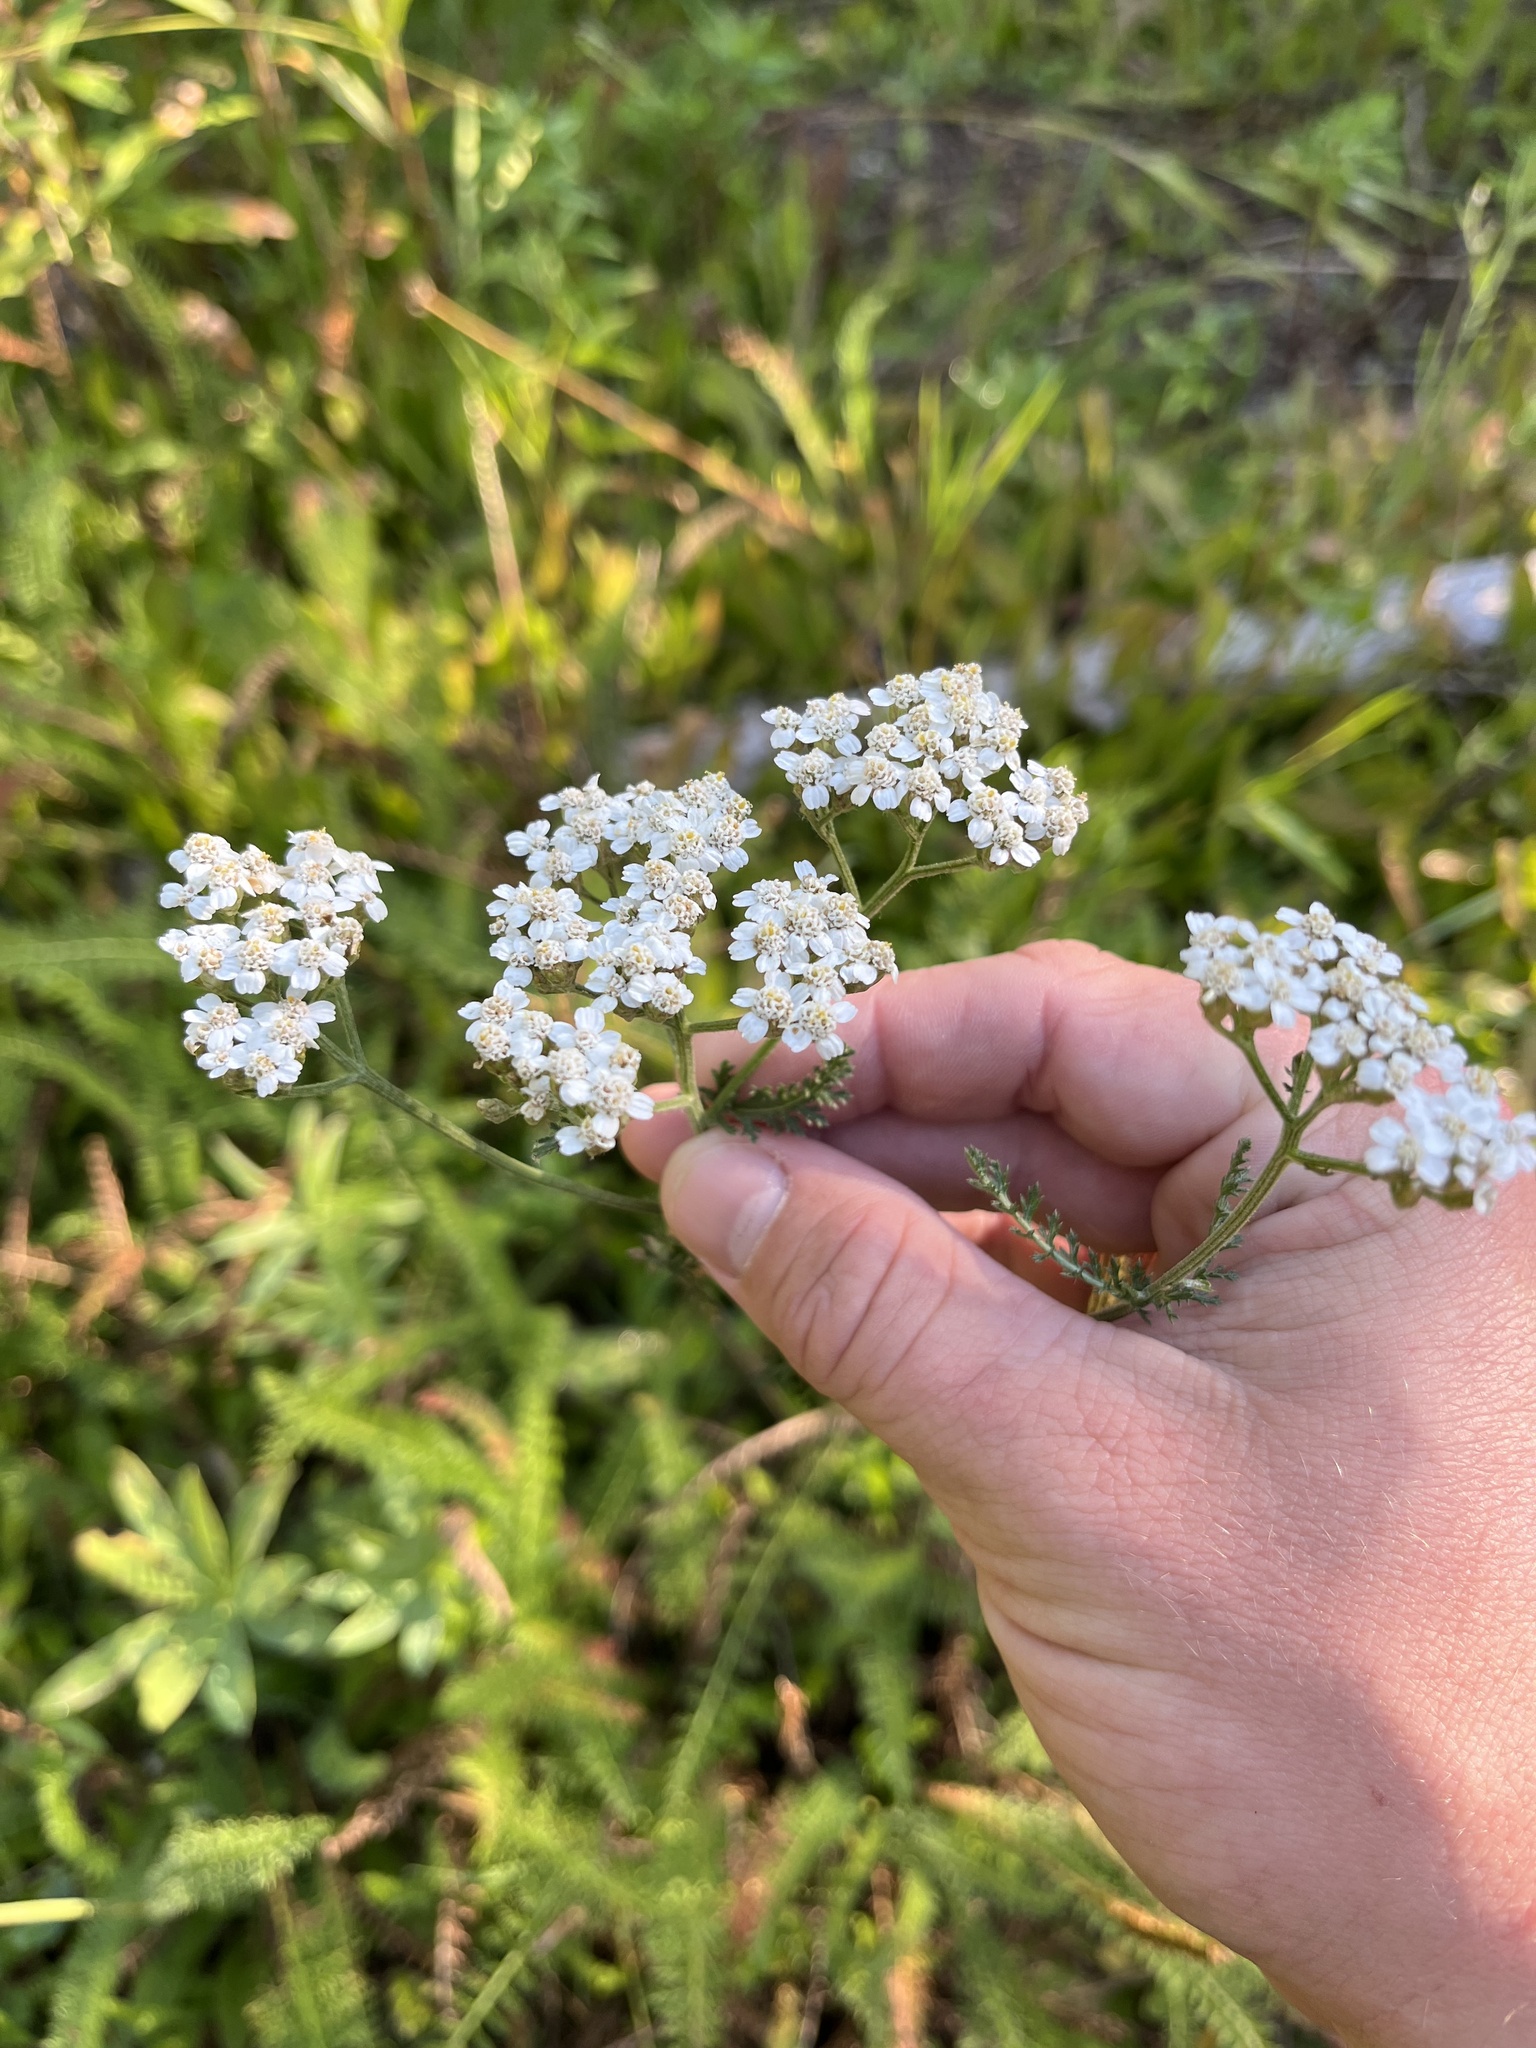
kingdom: Plantae
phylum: Tracheophyta
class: Magnoliopsida
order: Asterales
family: Asteraceae
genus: Achillea
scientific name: Achillea millefolium
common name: Yarrow
